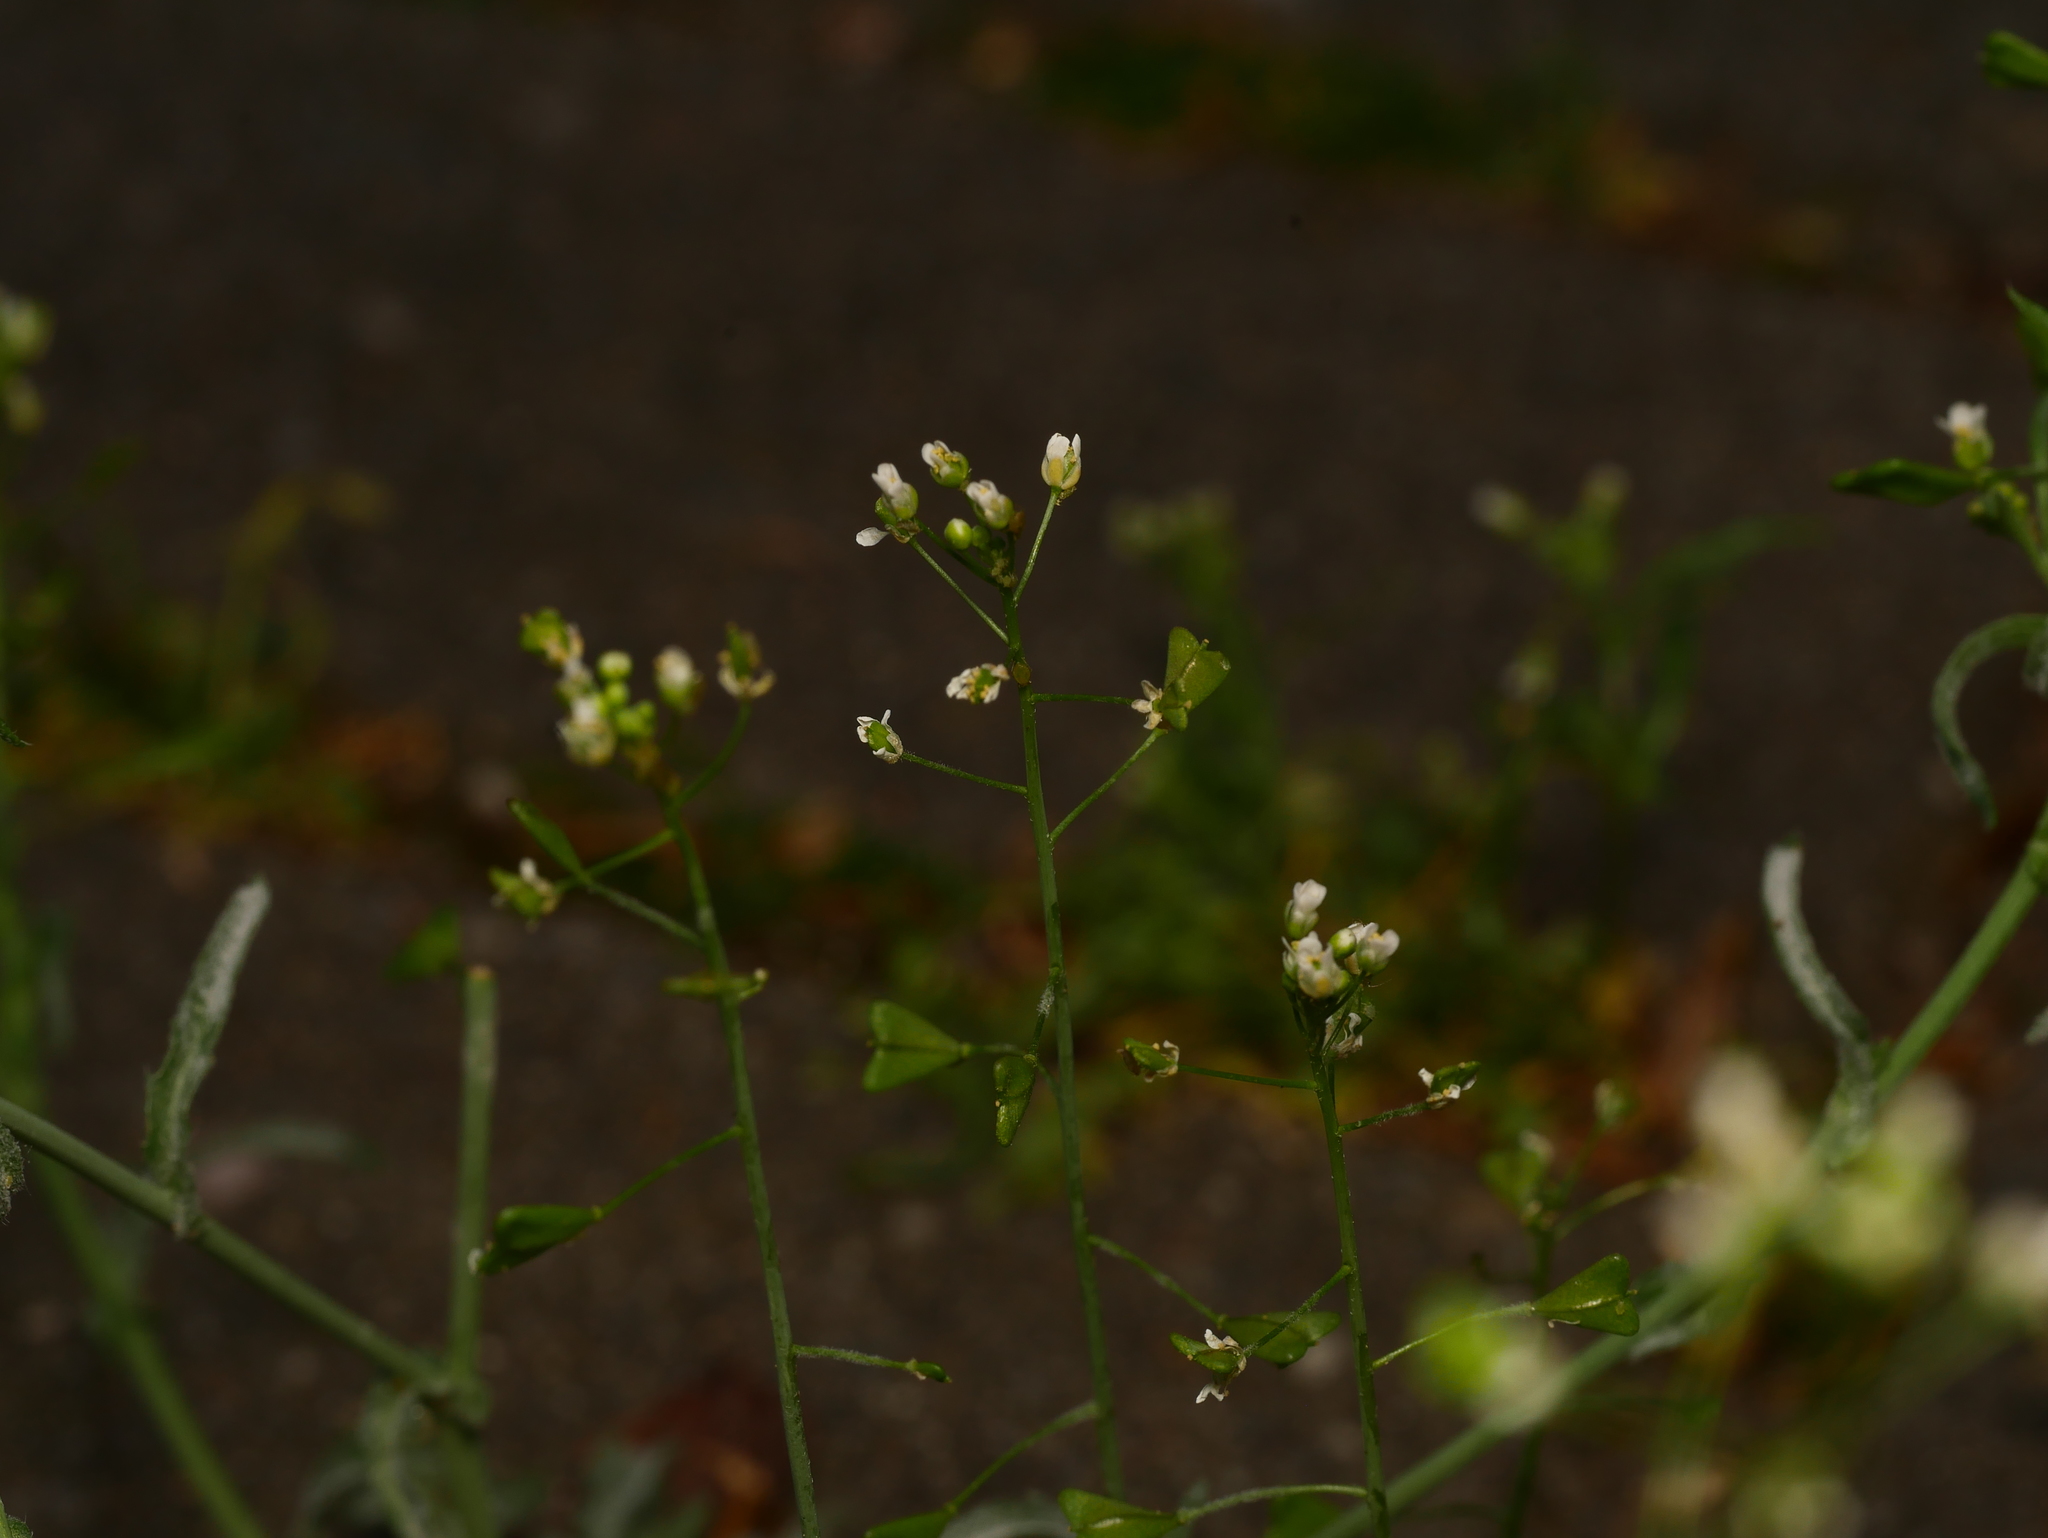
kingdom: Plantae
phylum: Tracheophyta
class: Magnoliopsida
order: Brassicales
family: Brassicaceae
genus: Capsella
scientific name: Capsella bursa-pastoris
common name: Shepherd's purse
